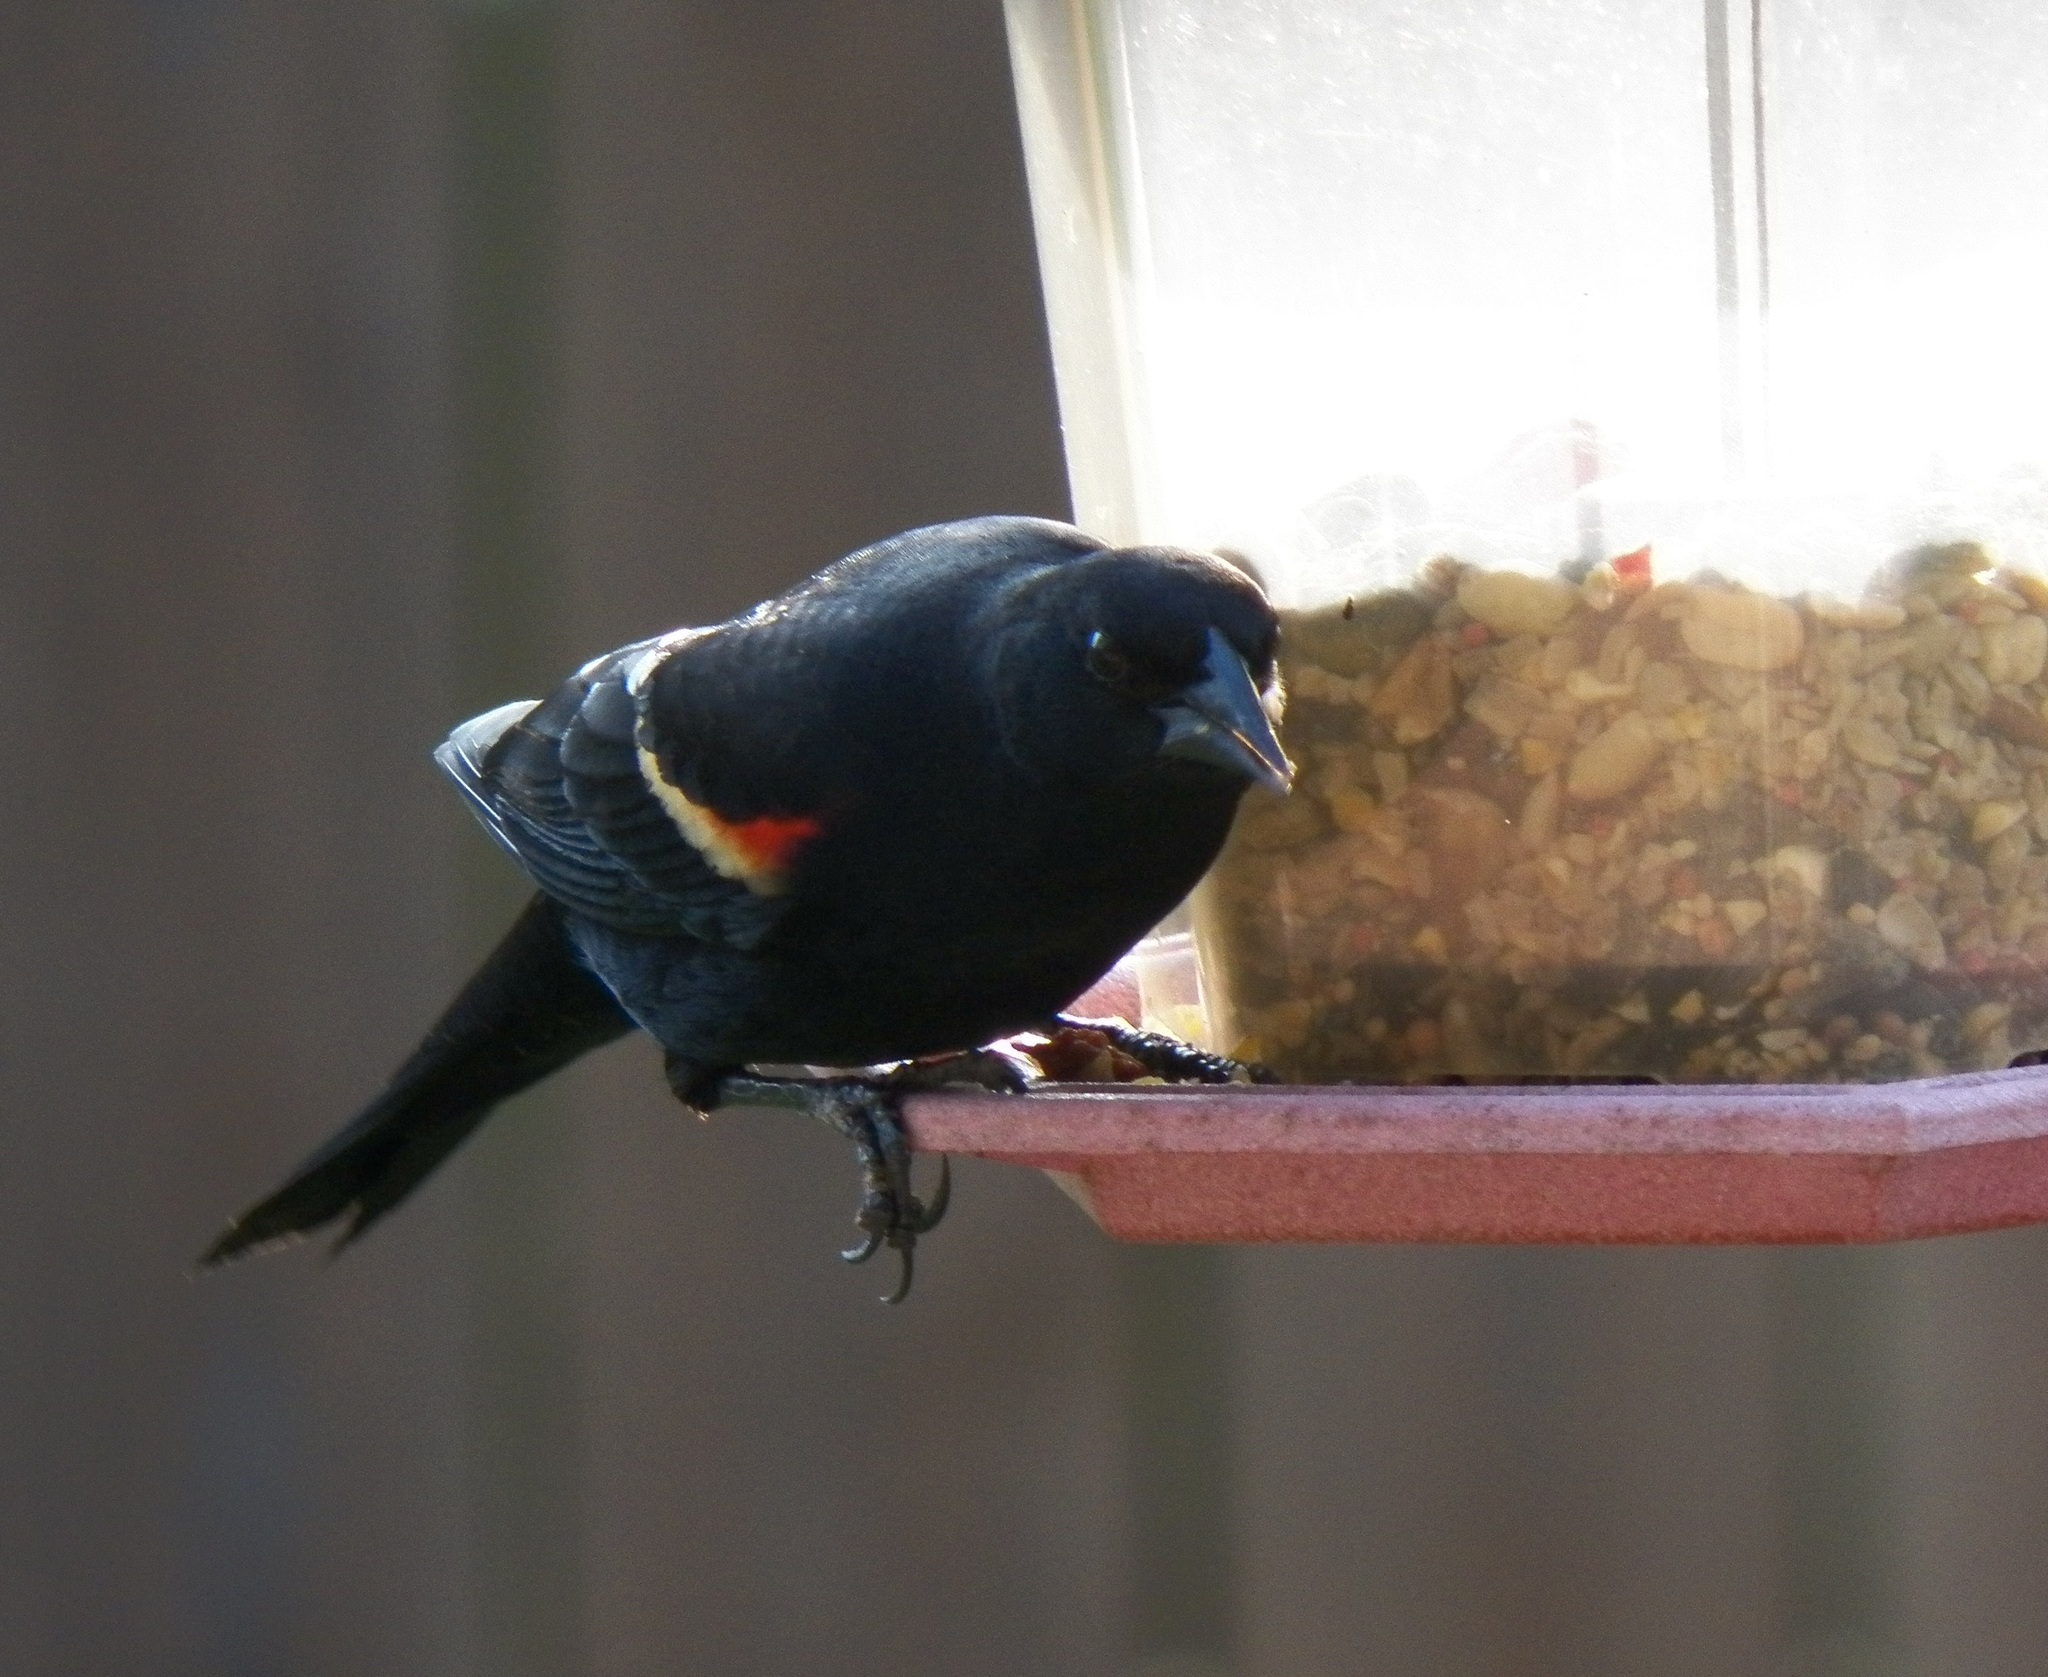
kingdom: Animalia
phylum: Chordata
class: Aves
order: Passeriformes
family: Icteridae
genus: Agelaius
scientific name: Agelaius phoeniceus
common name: Red-winged blackbird
